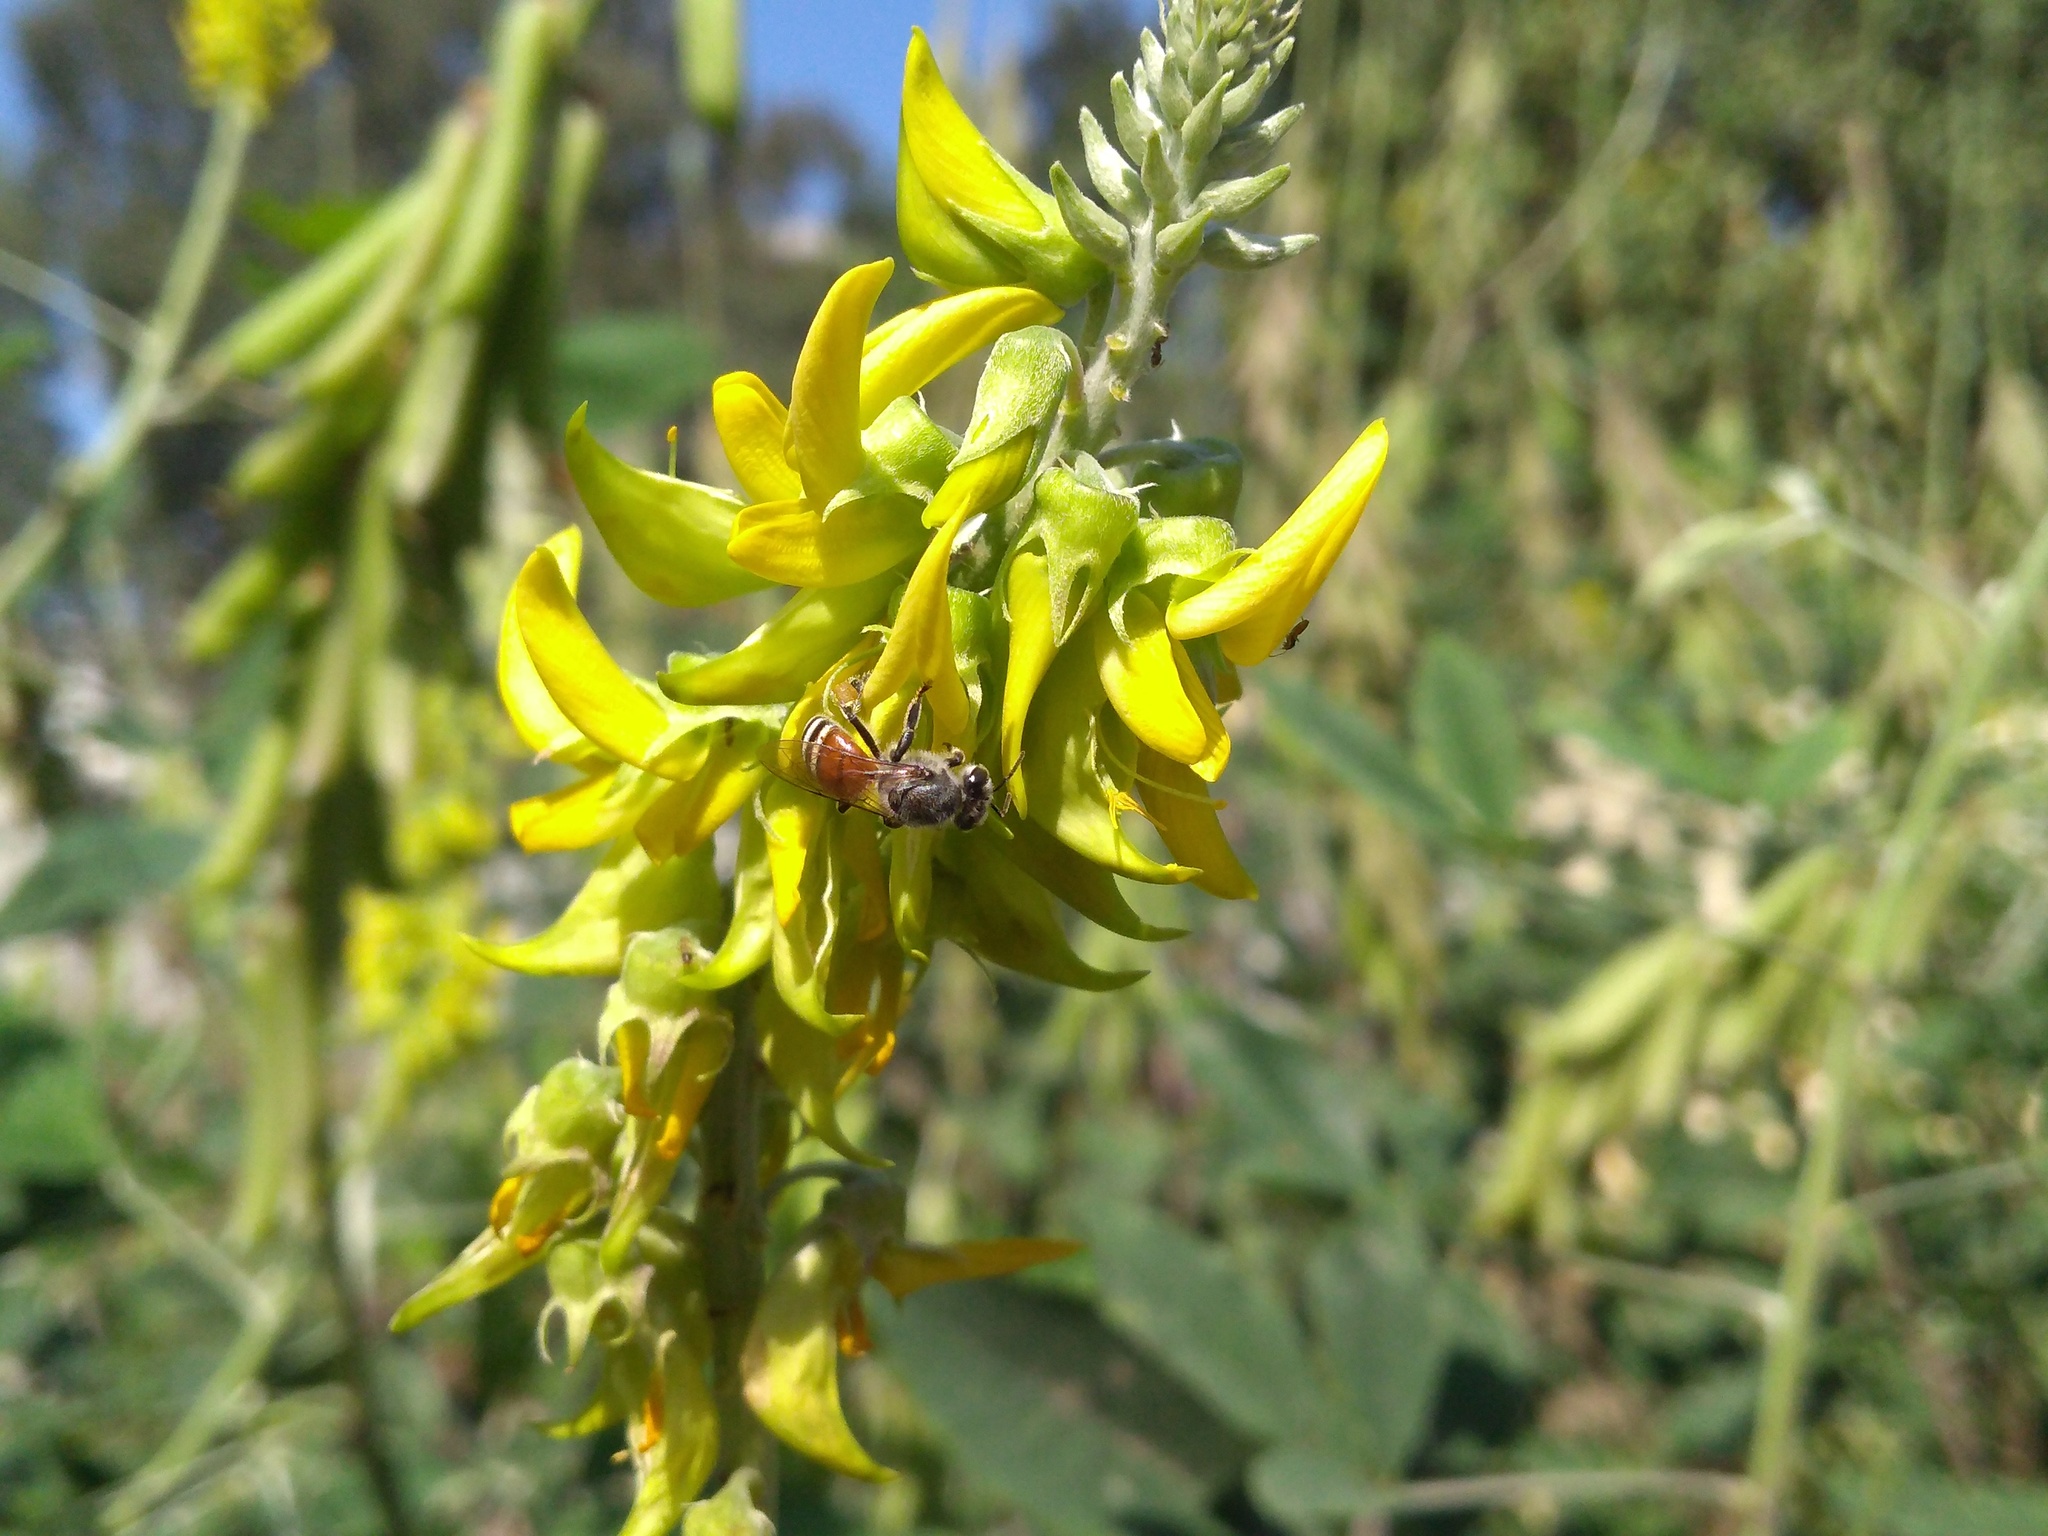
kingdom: Animalia
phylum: Arthropoda
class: Insecta
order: Hymenoptera
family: Apidae
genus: Apis
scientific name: Apis florea
